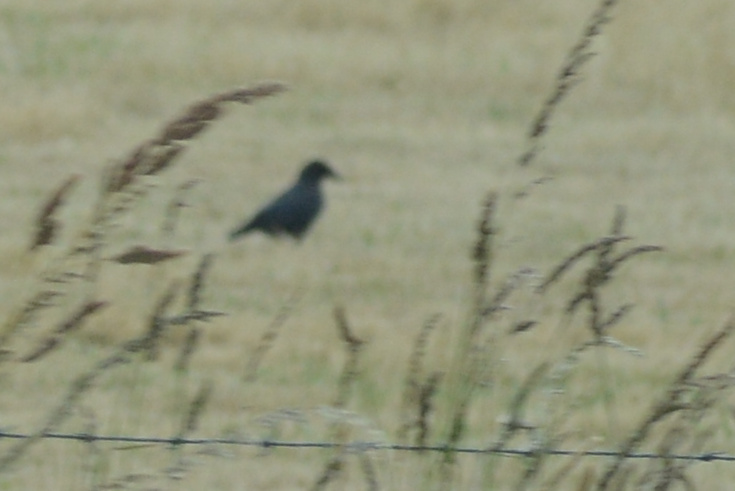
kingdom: Animalia
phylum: Chordata
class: Aves
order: Passeriformes
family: Corvidae
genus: Corvus
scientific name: Corvus tasmanicus
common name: Forest raven
